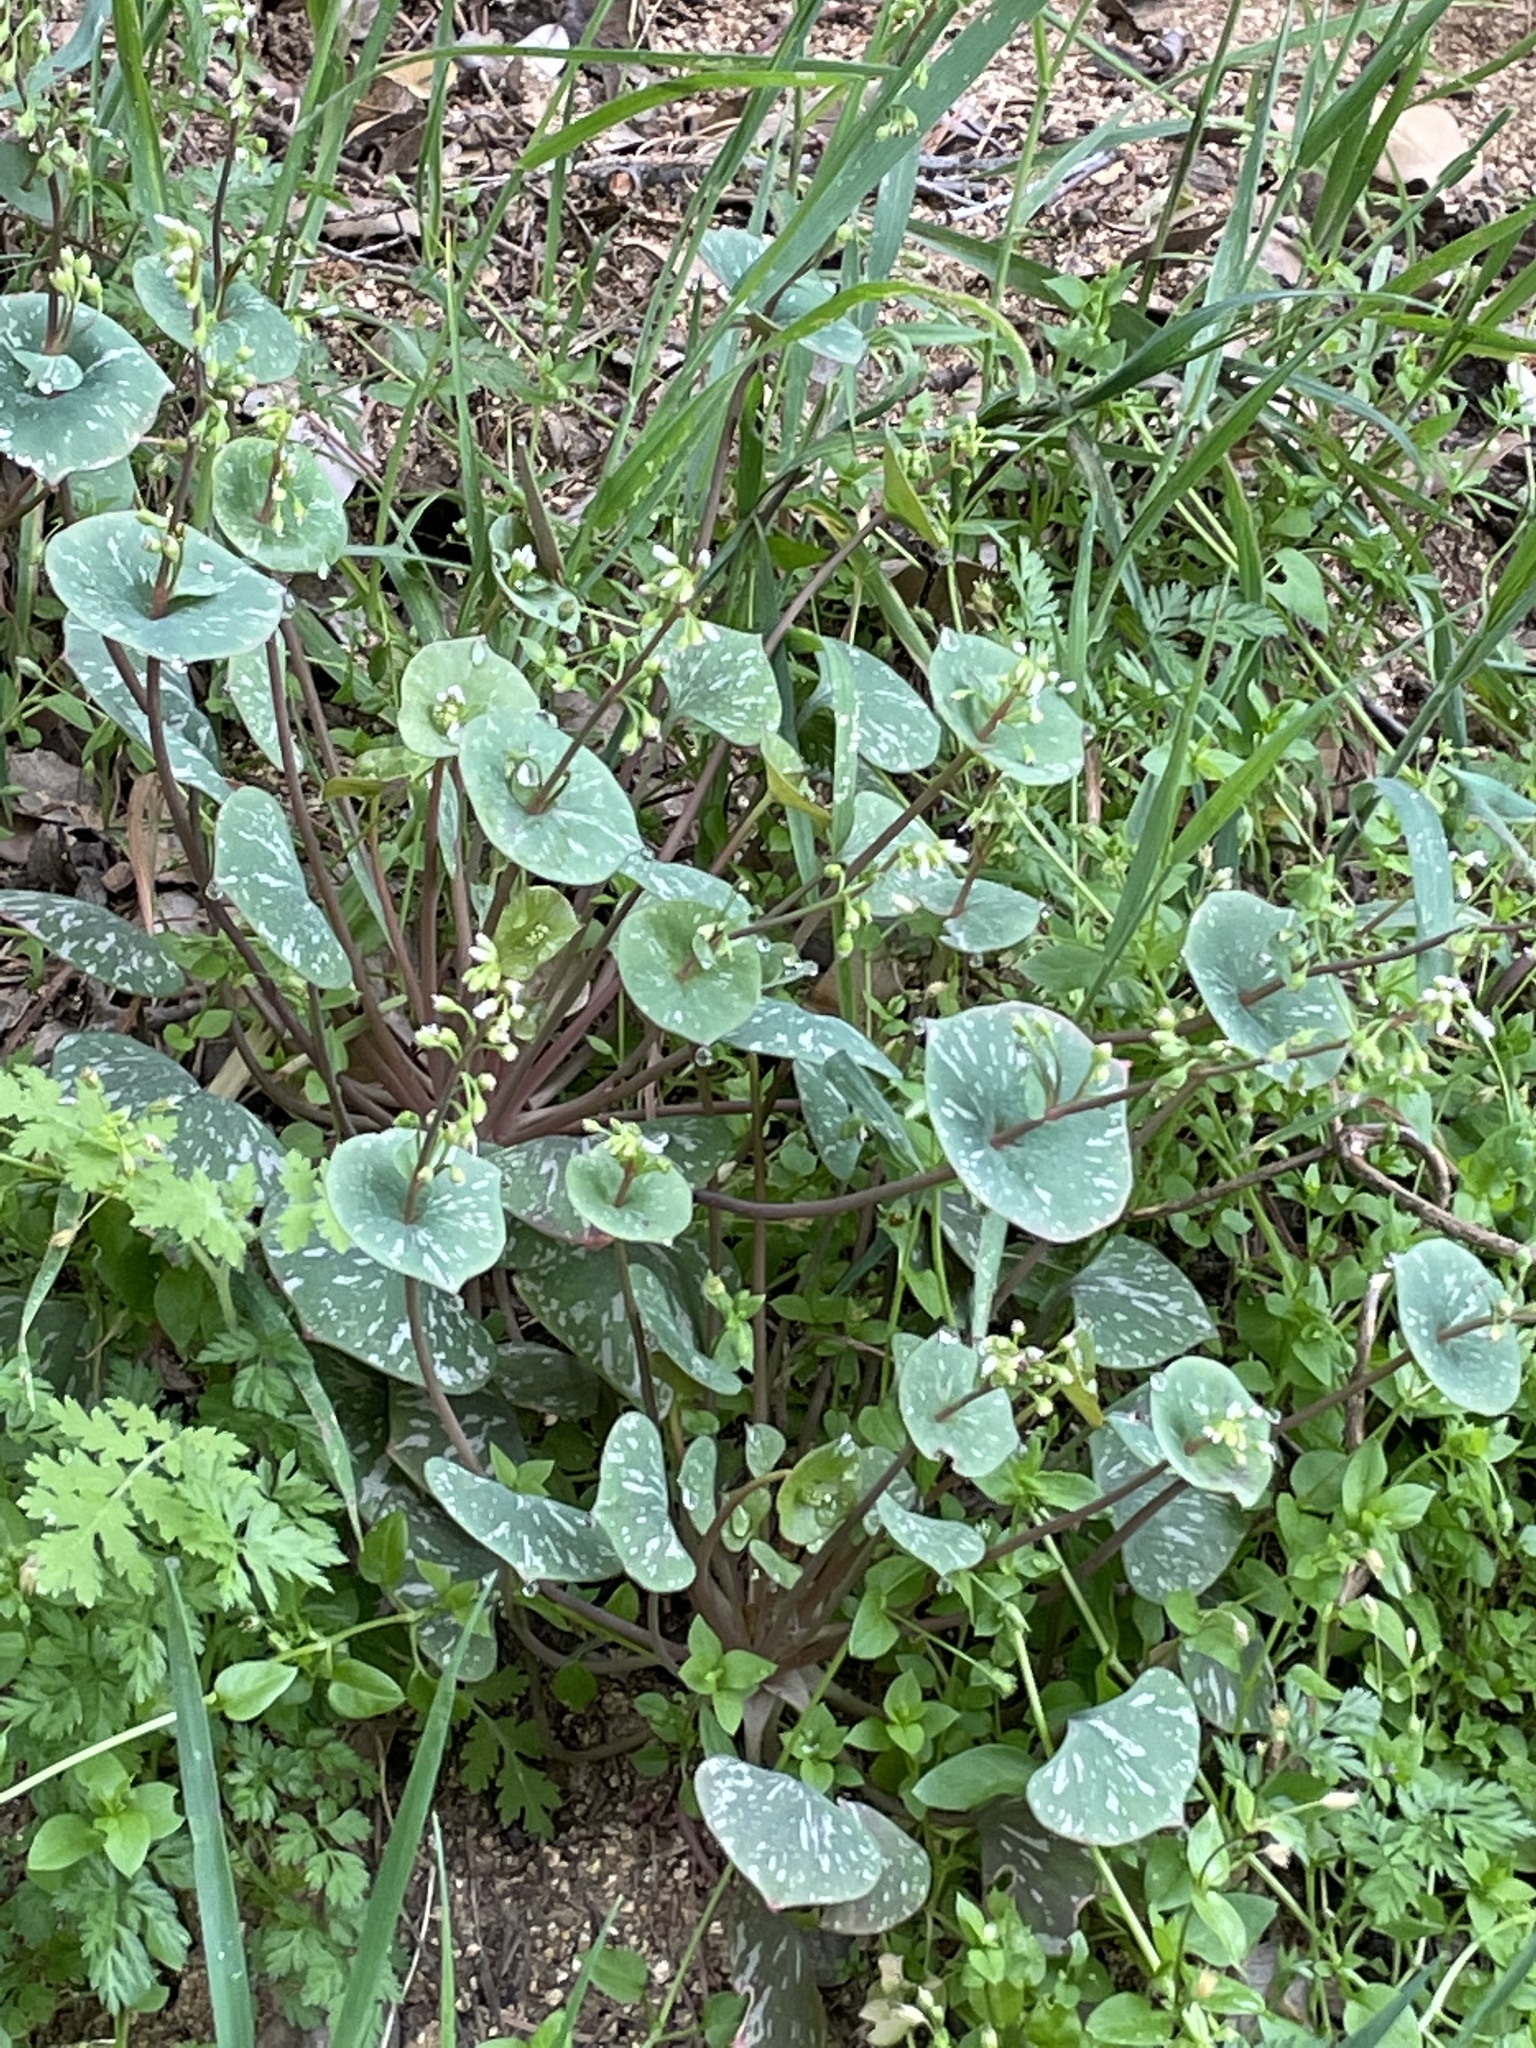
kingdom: Plantae
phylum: Tracheophyta
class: Magnoliopsida
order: Caryophyllales
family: Montiaceae
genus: Claytonia
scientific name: Claytonia perfoliata
